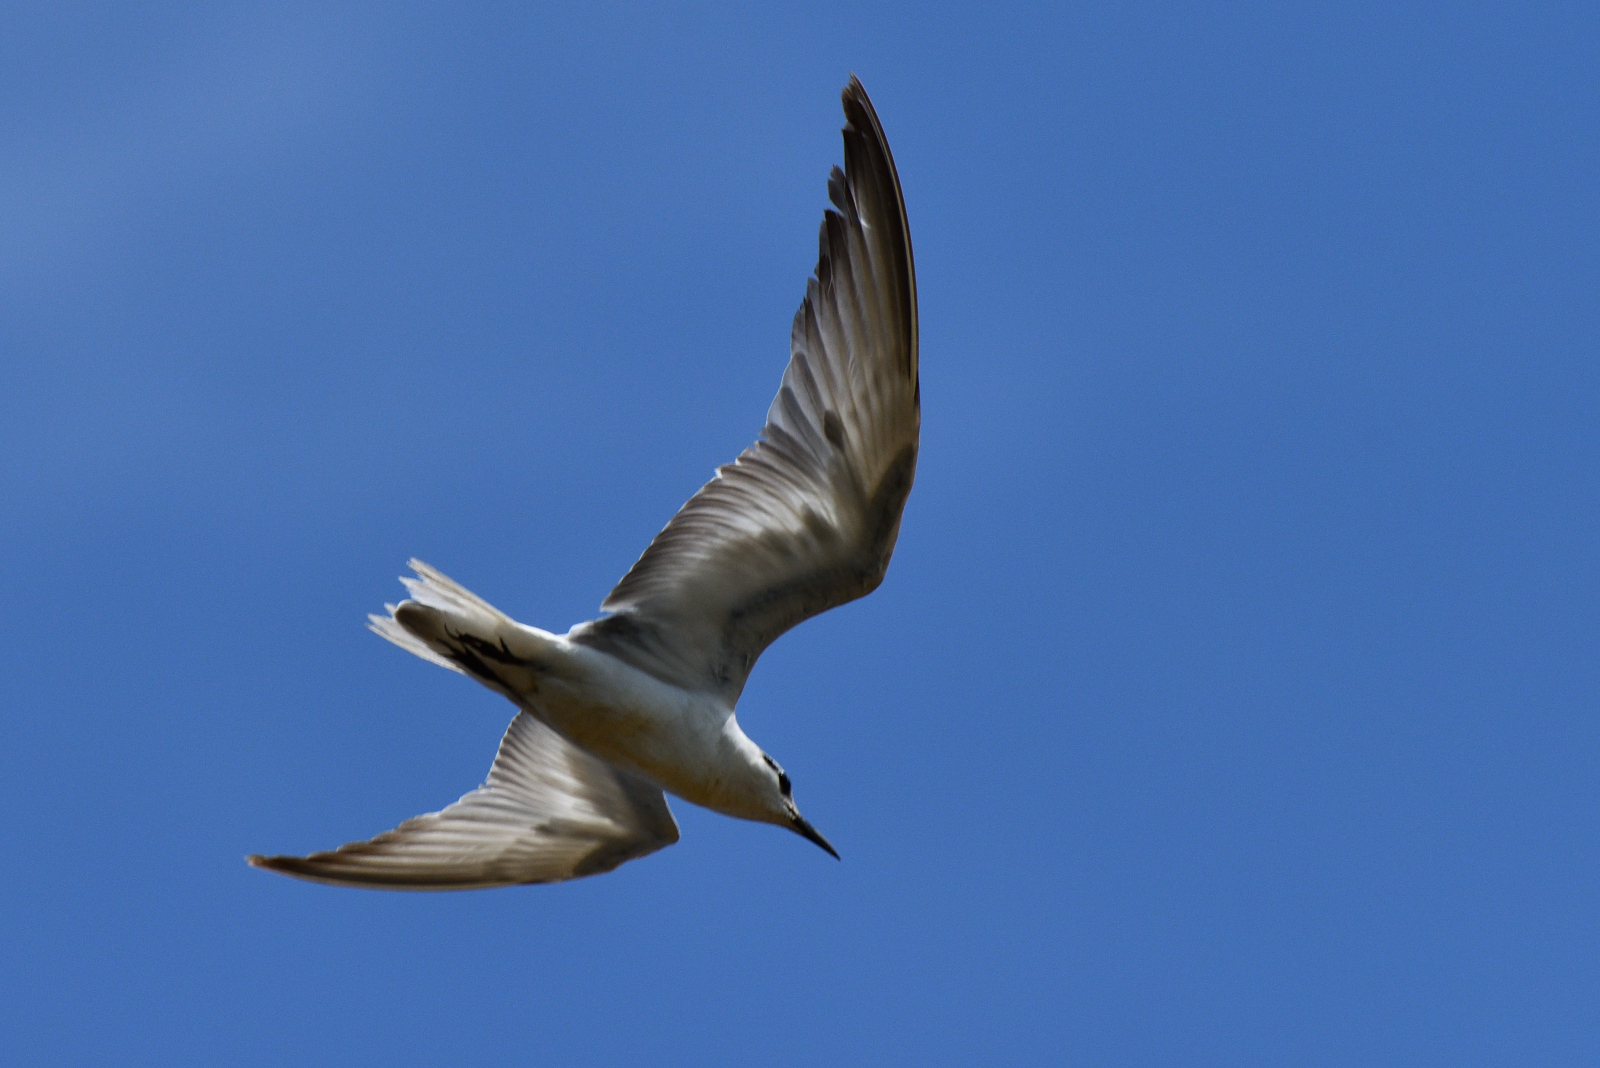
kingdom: Animalia
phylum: Chordata
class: Aves
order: Charadriiformes
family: Laridae
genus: Chlidonias
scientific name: Chlidonias hybrida
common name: Whiskered tern
